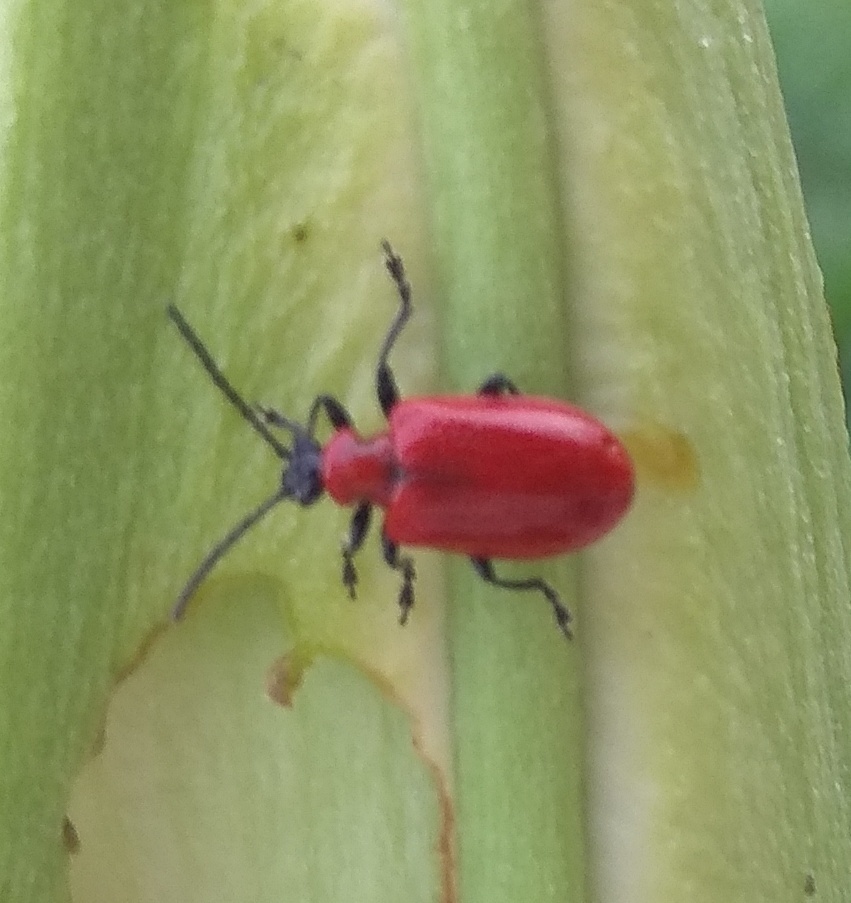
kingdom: Animalia
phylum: Arthropoda
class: Insecta
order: Coleoptera
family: Chrysomelidae
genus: Lilioceris
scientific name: Lilioceris lilii
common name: Lily beetle
